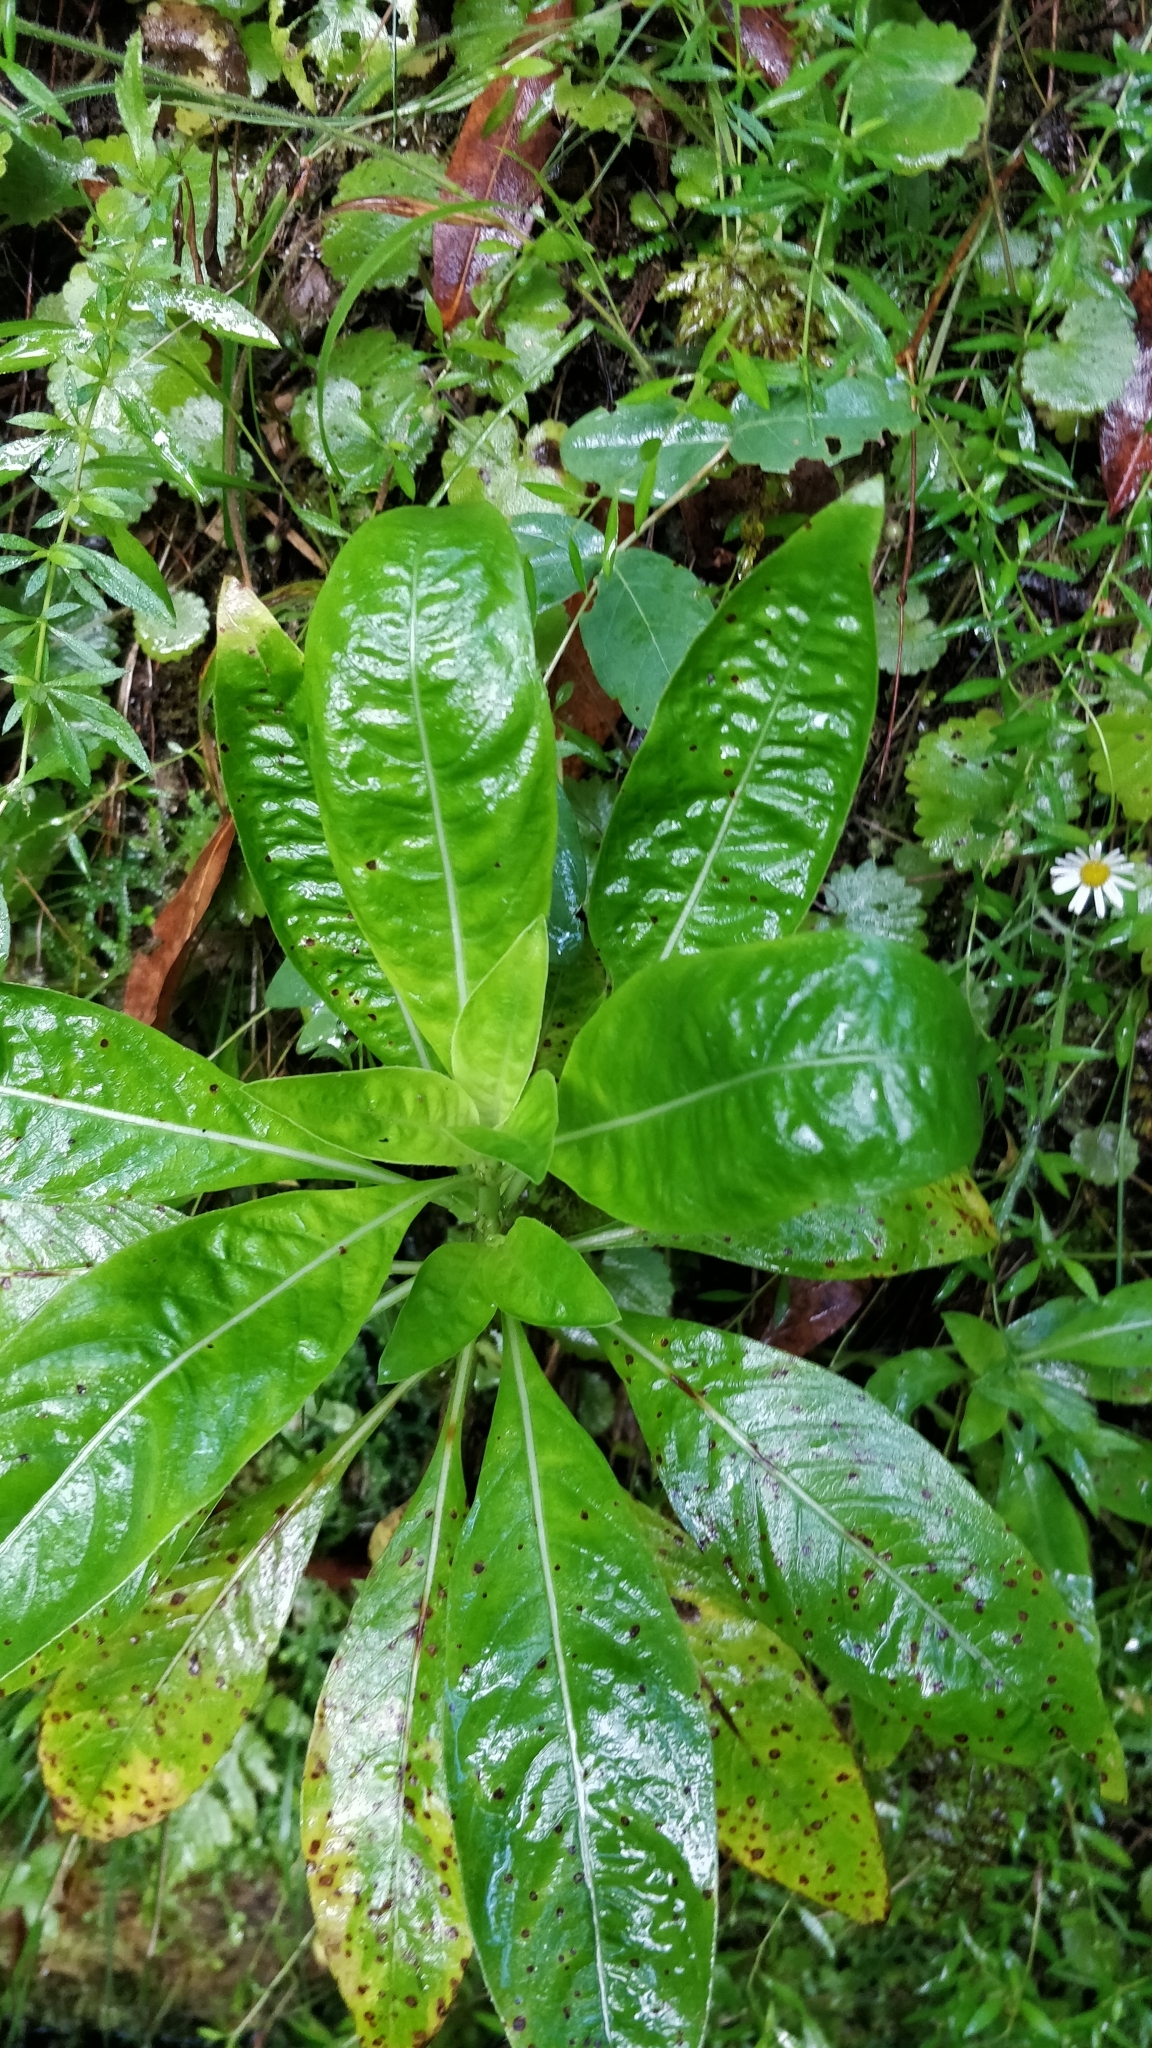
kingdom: Plantae
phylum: Tracheophyta
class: Magnoliopsida
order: Gentianales
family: Rubiaceae
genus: Phyllis
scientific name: Phyllis nobla
